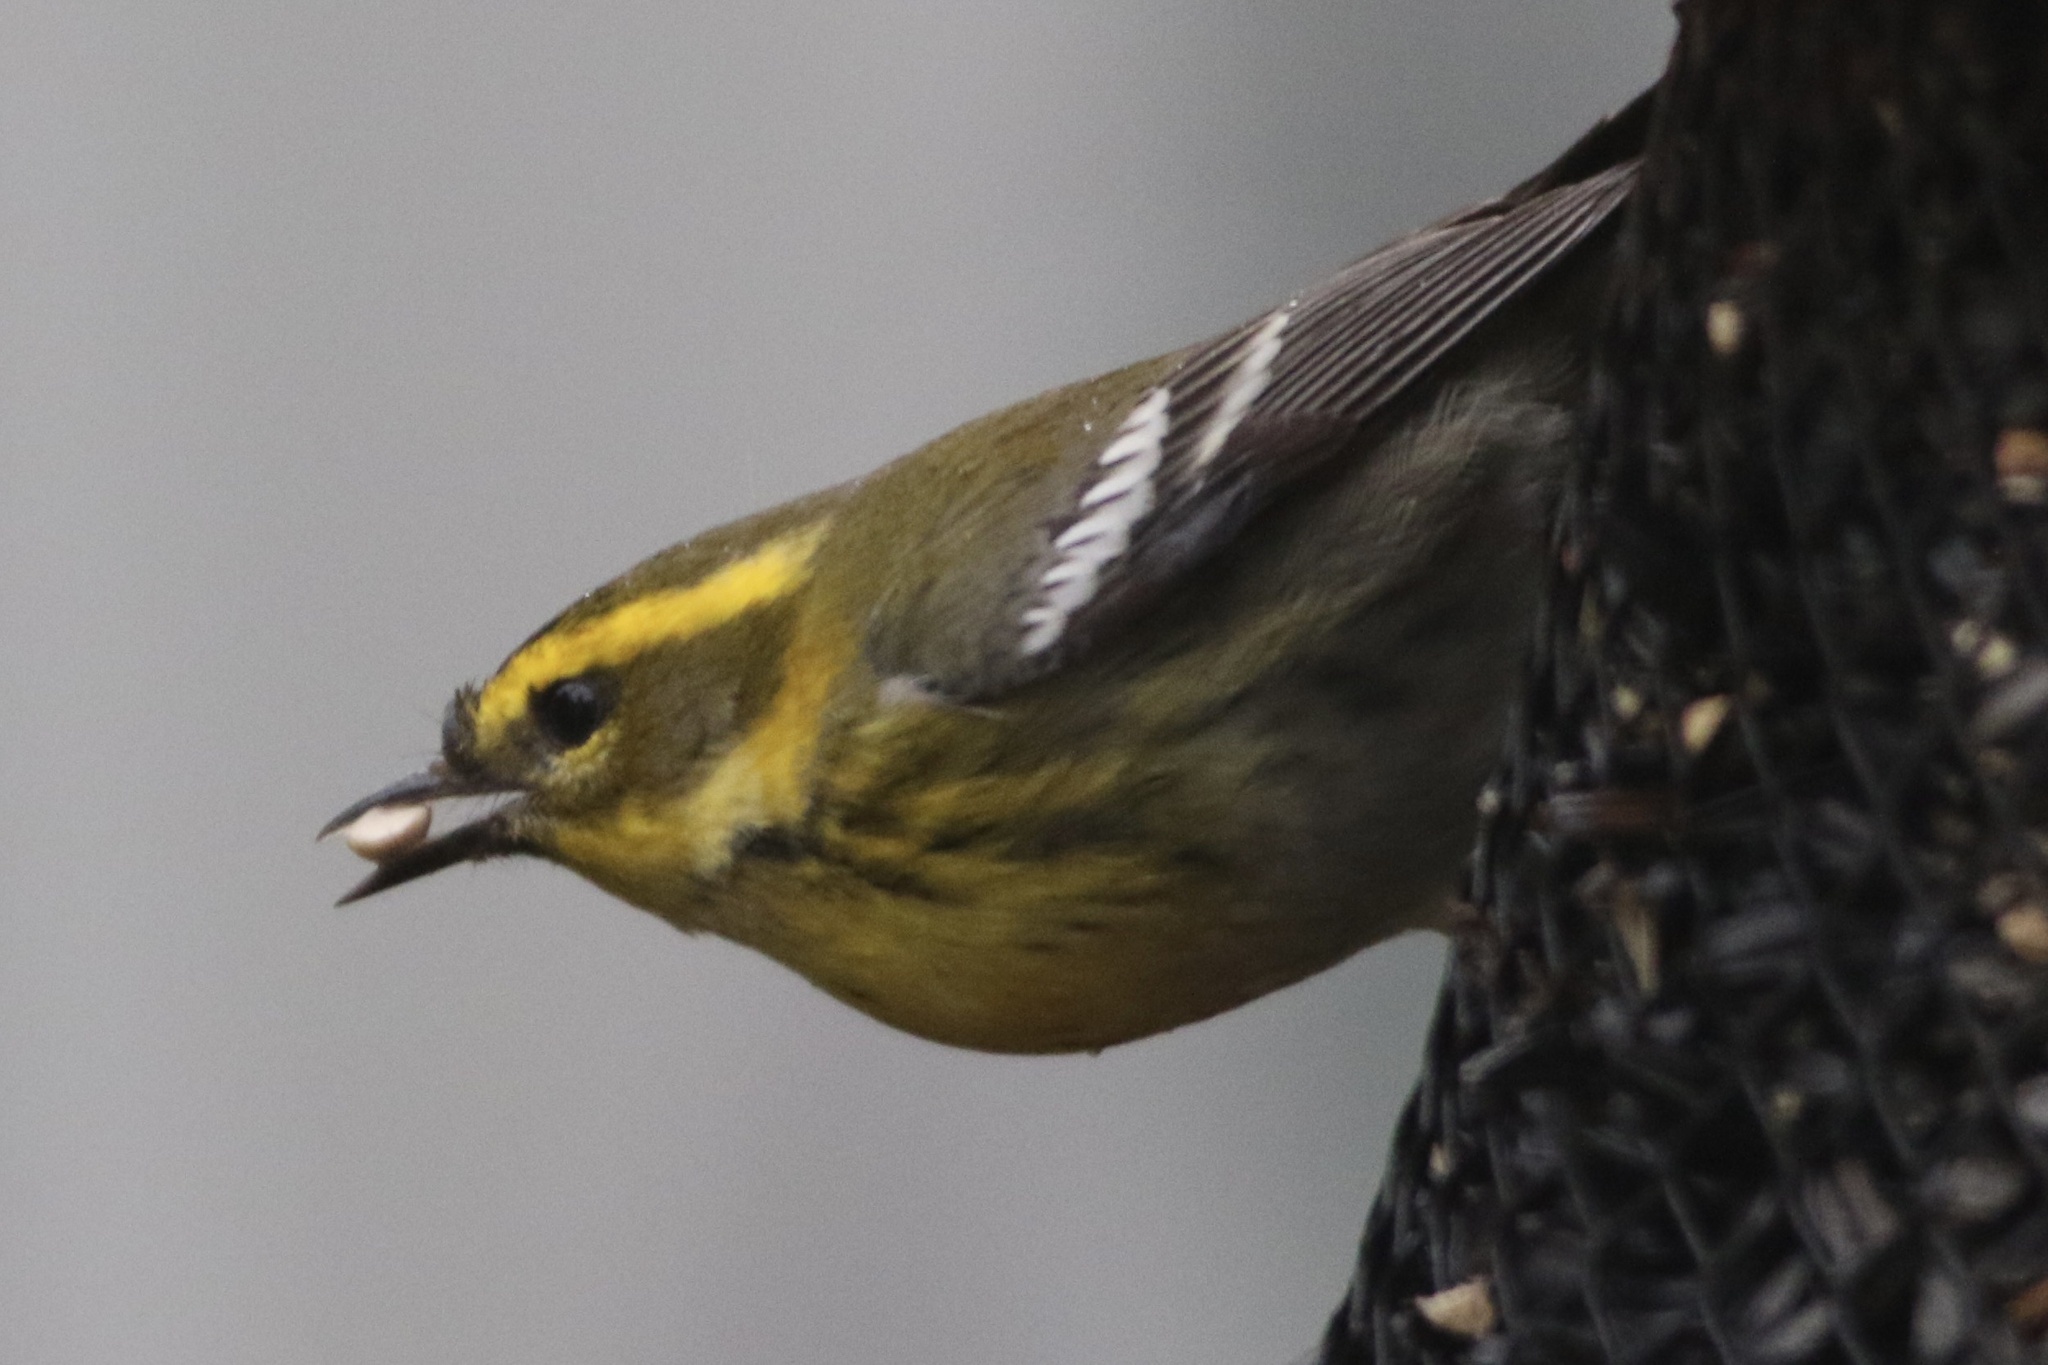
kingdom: Animalia
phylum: Chordata
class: Aves
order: Passeriformes
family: Parulidae
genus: Setophaga
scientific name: Setophaga townsendi
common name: Townsend's warbler
